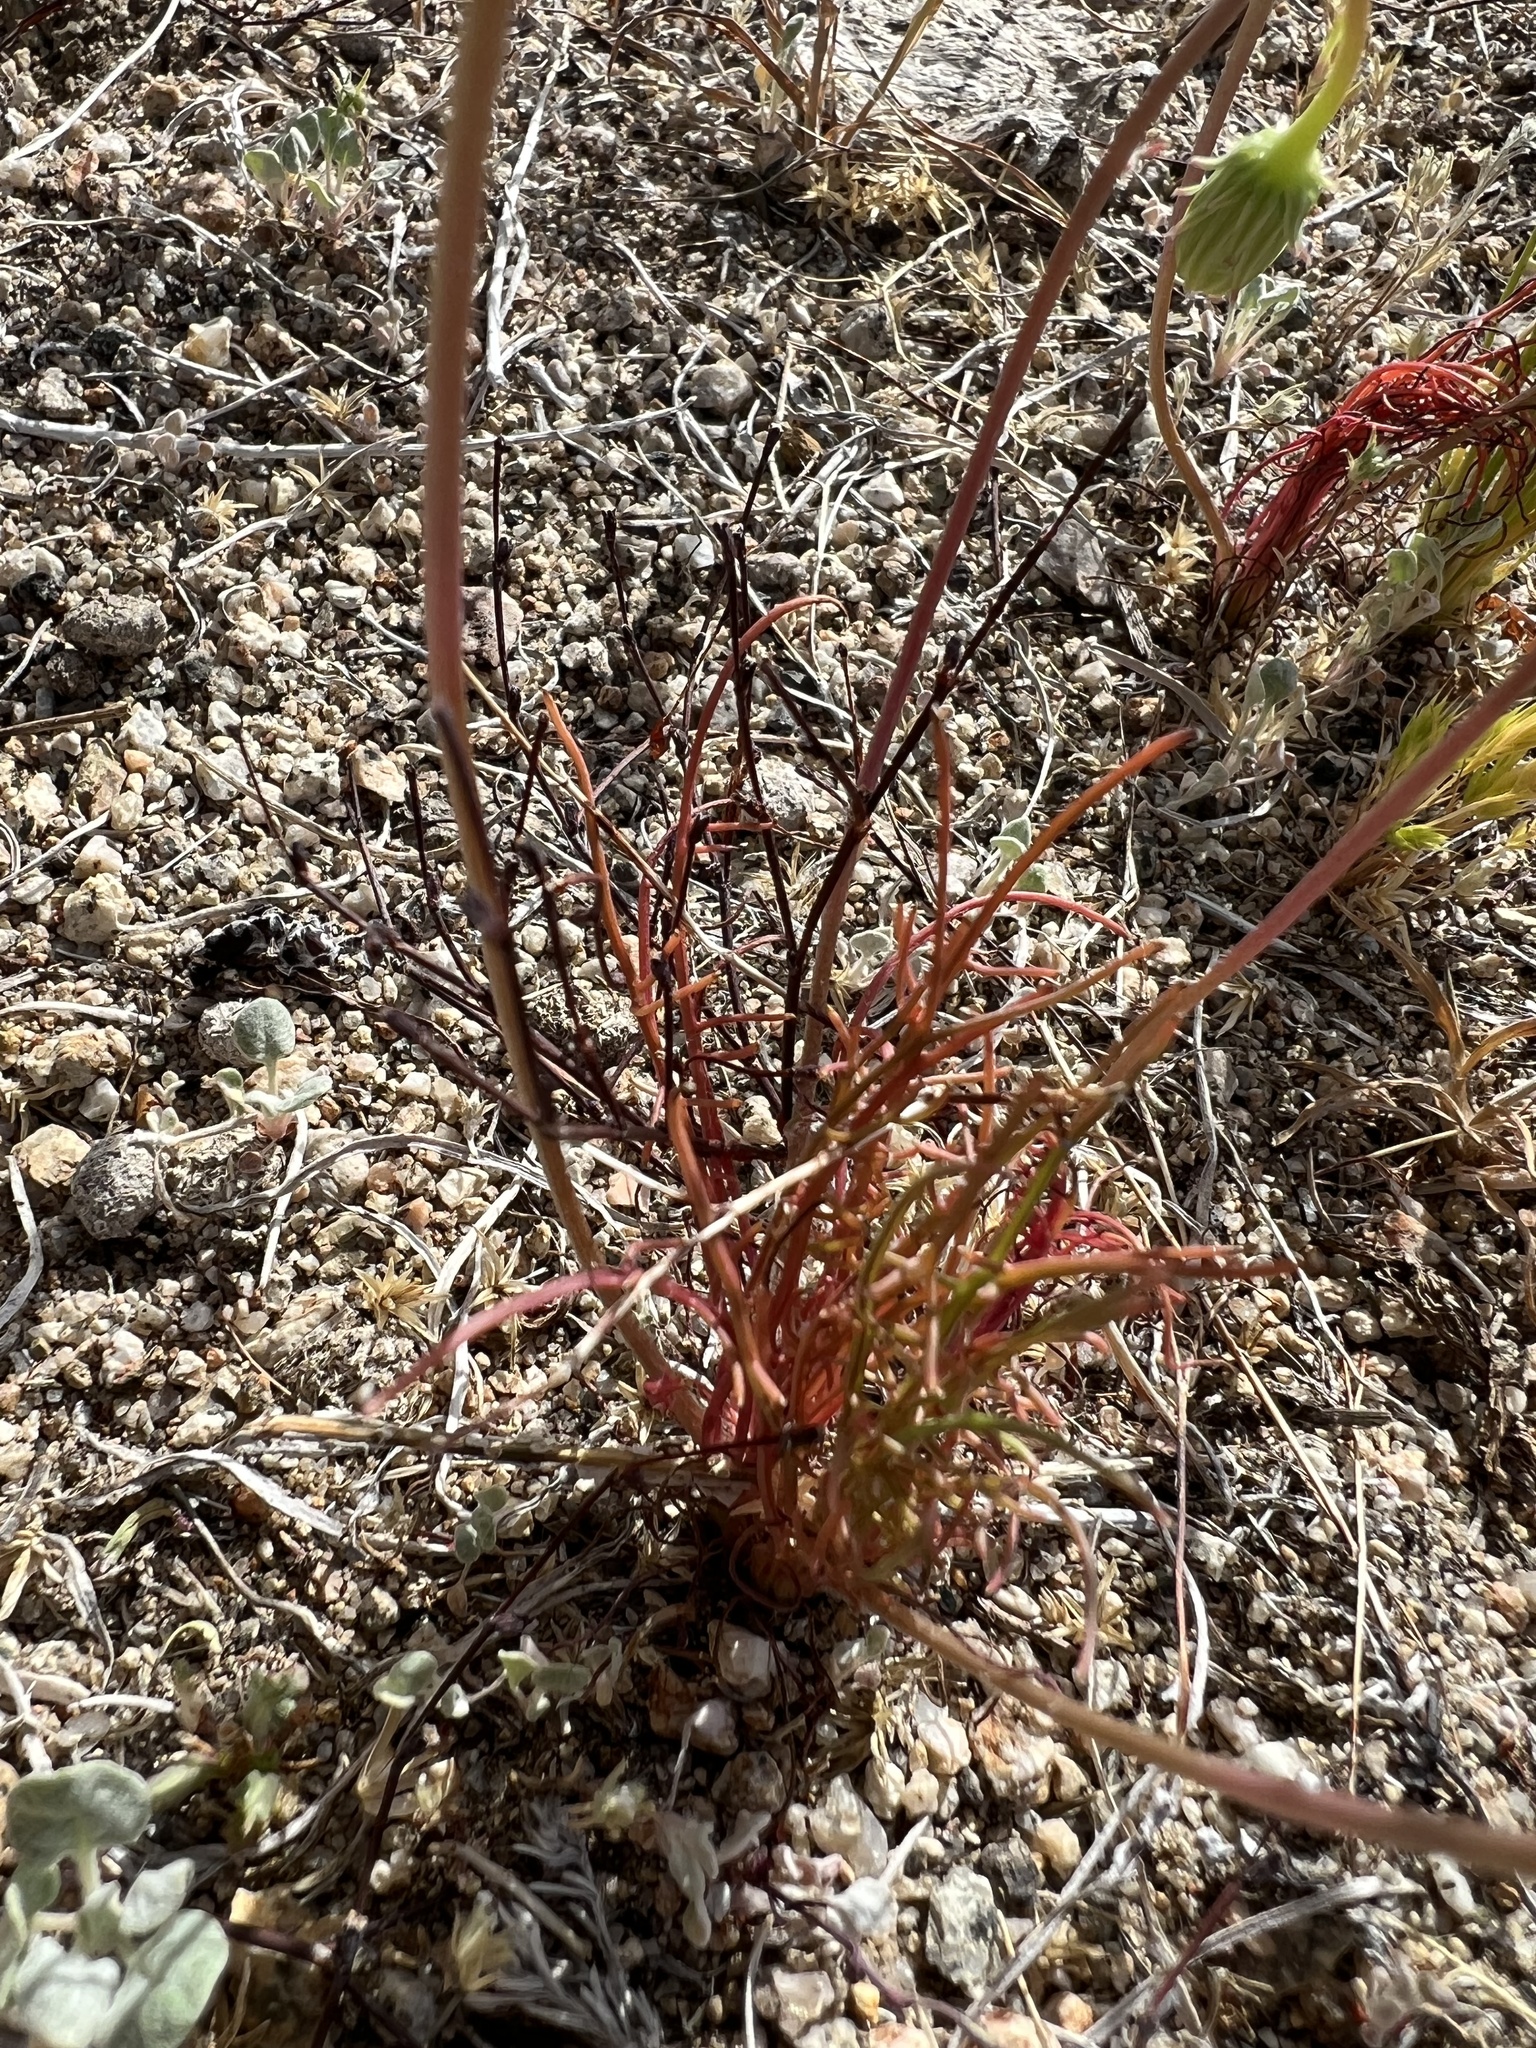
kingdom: Plantae
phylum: Tracheophyta
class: Magnoliopsida
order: Asterales
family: Asteraceae
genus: Malacothrix
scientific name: Malacothrix glabrata
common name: Smooth desert-dandelion
